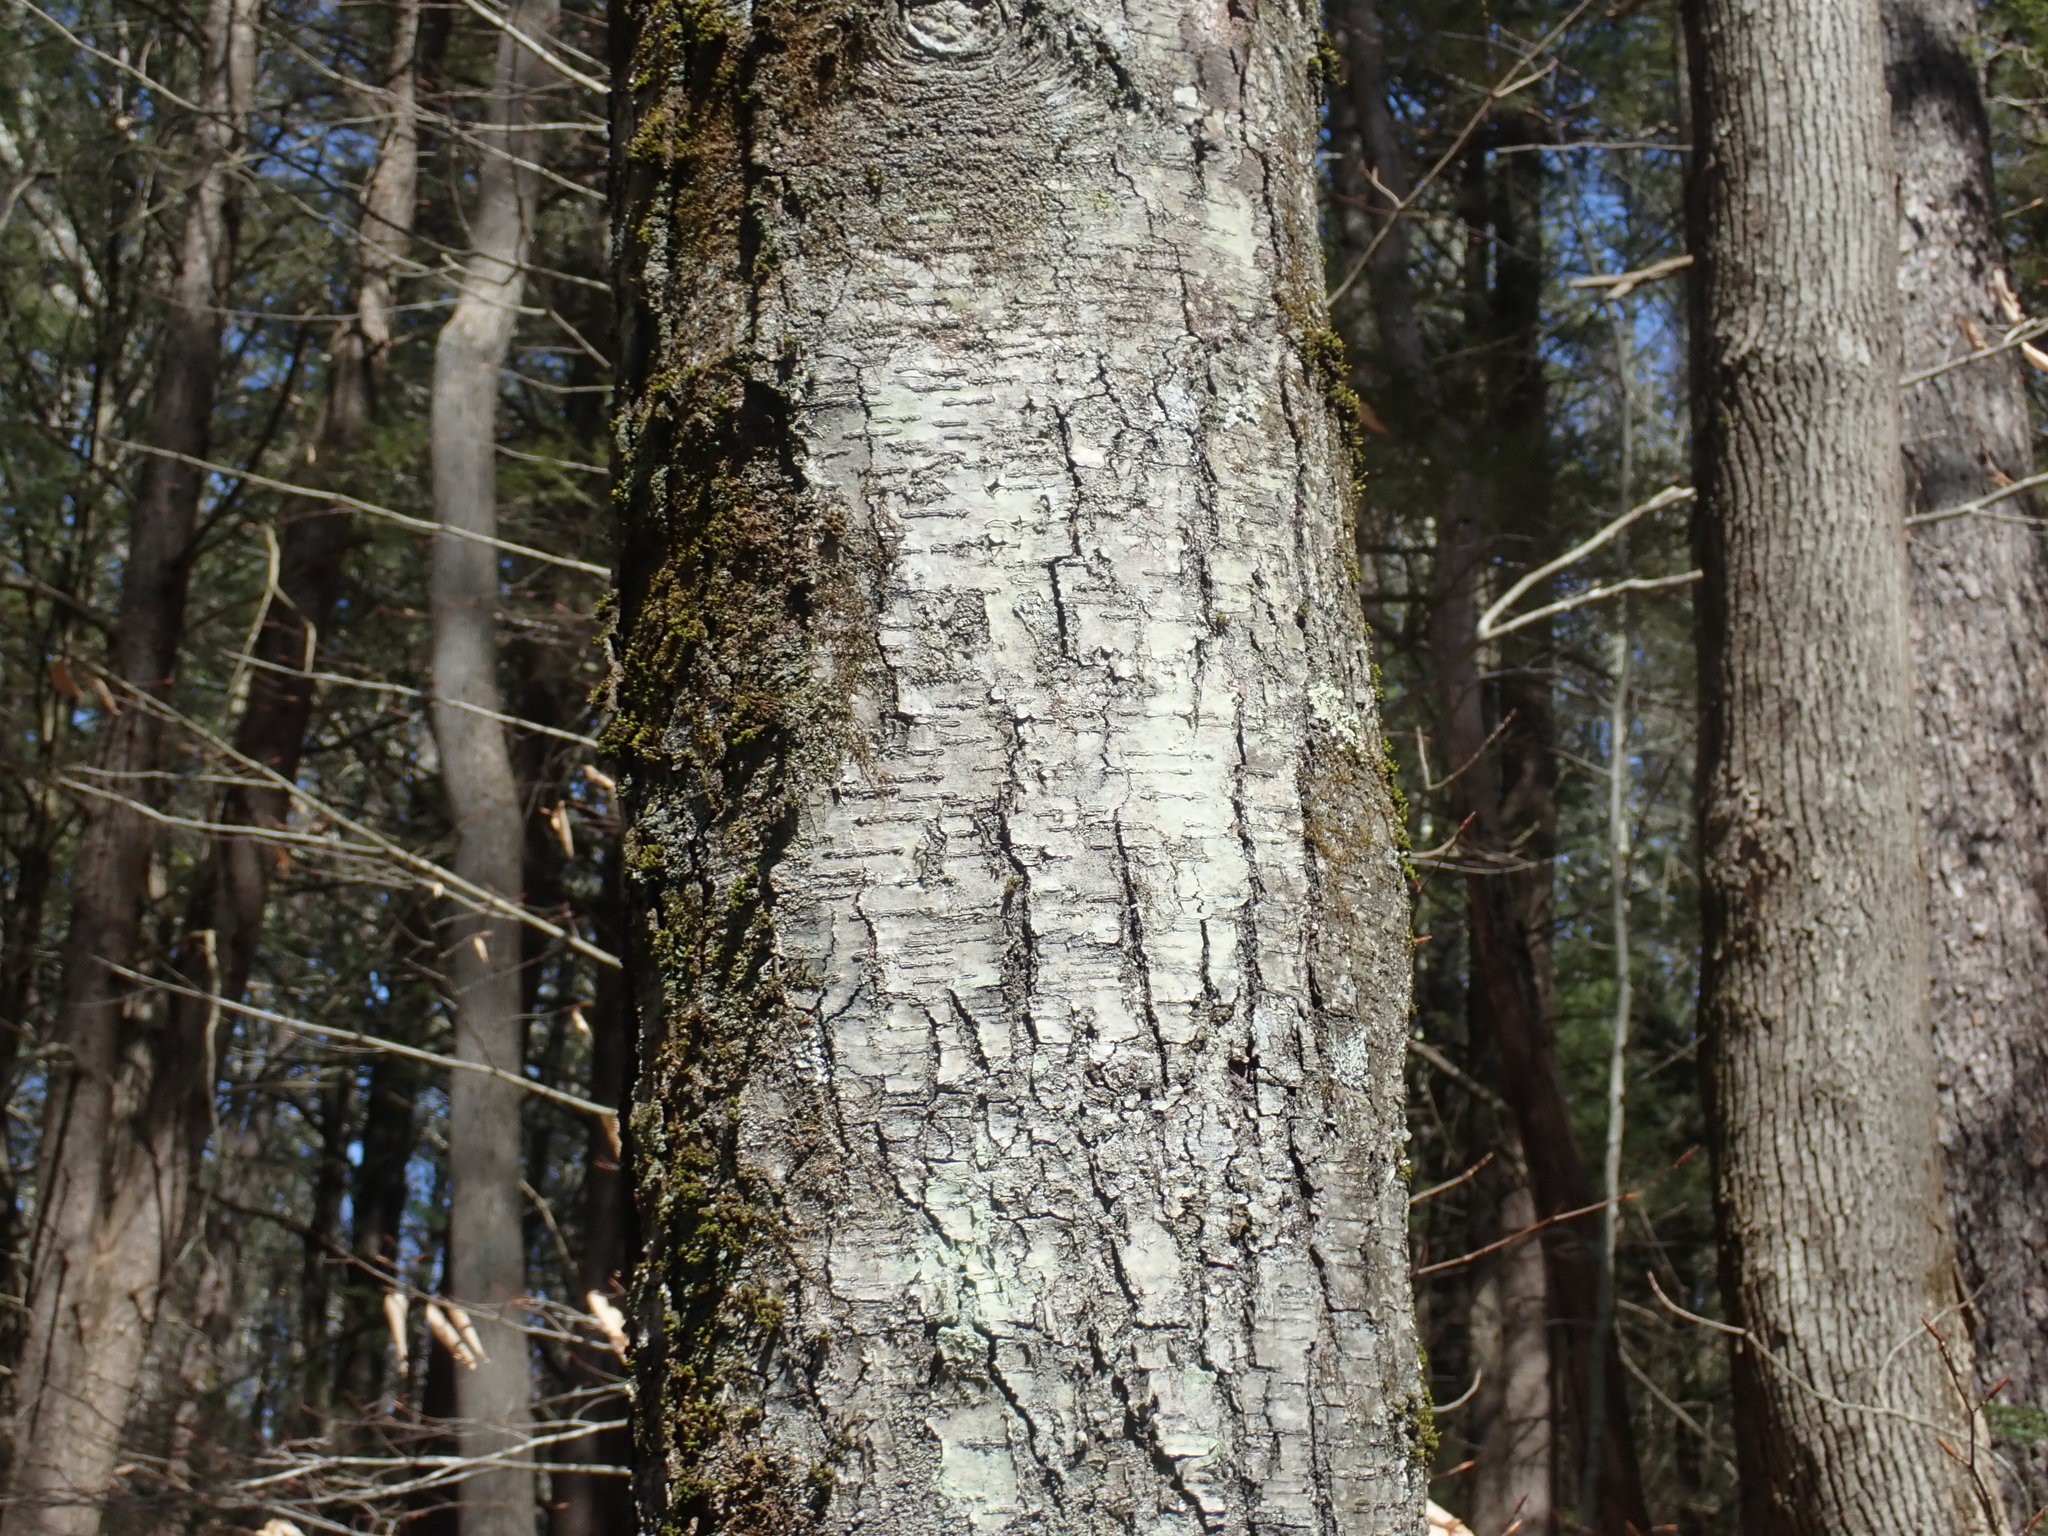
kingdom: Plantae
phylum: Tracheophyta
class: Magnoliopsida
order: Fagales
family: Betulaceae
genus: Betula
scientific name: Betula lenta
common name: Black birch
